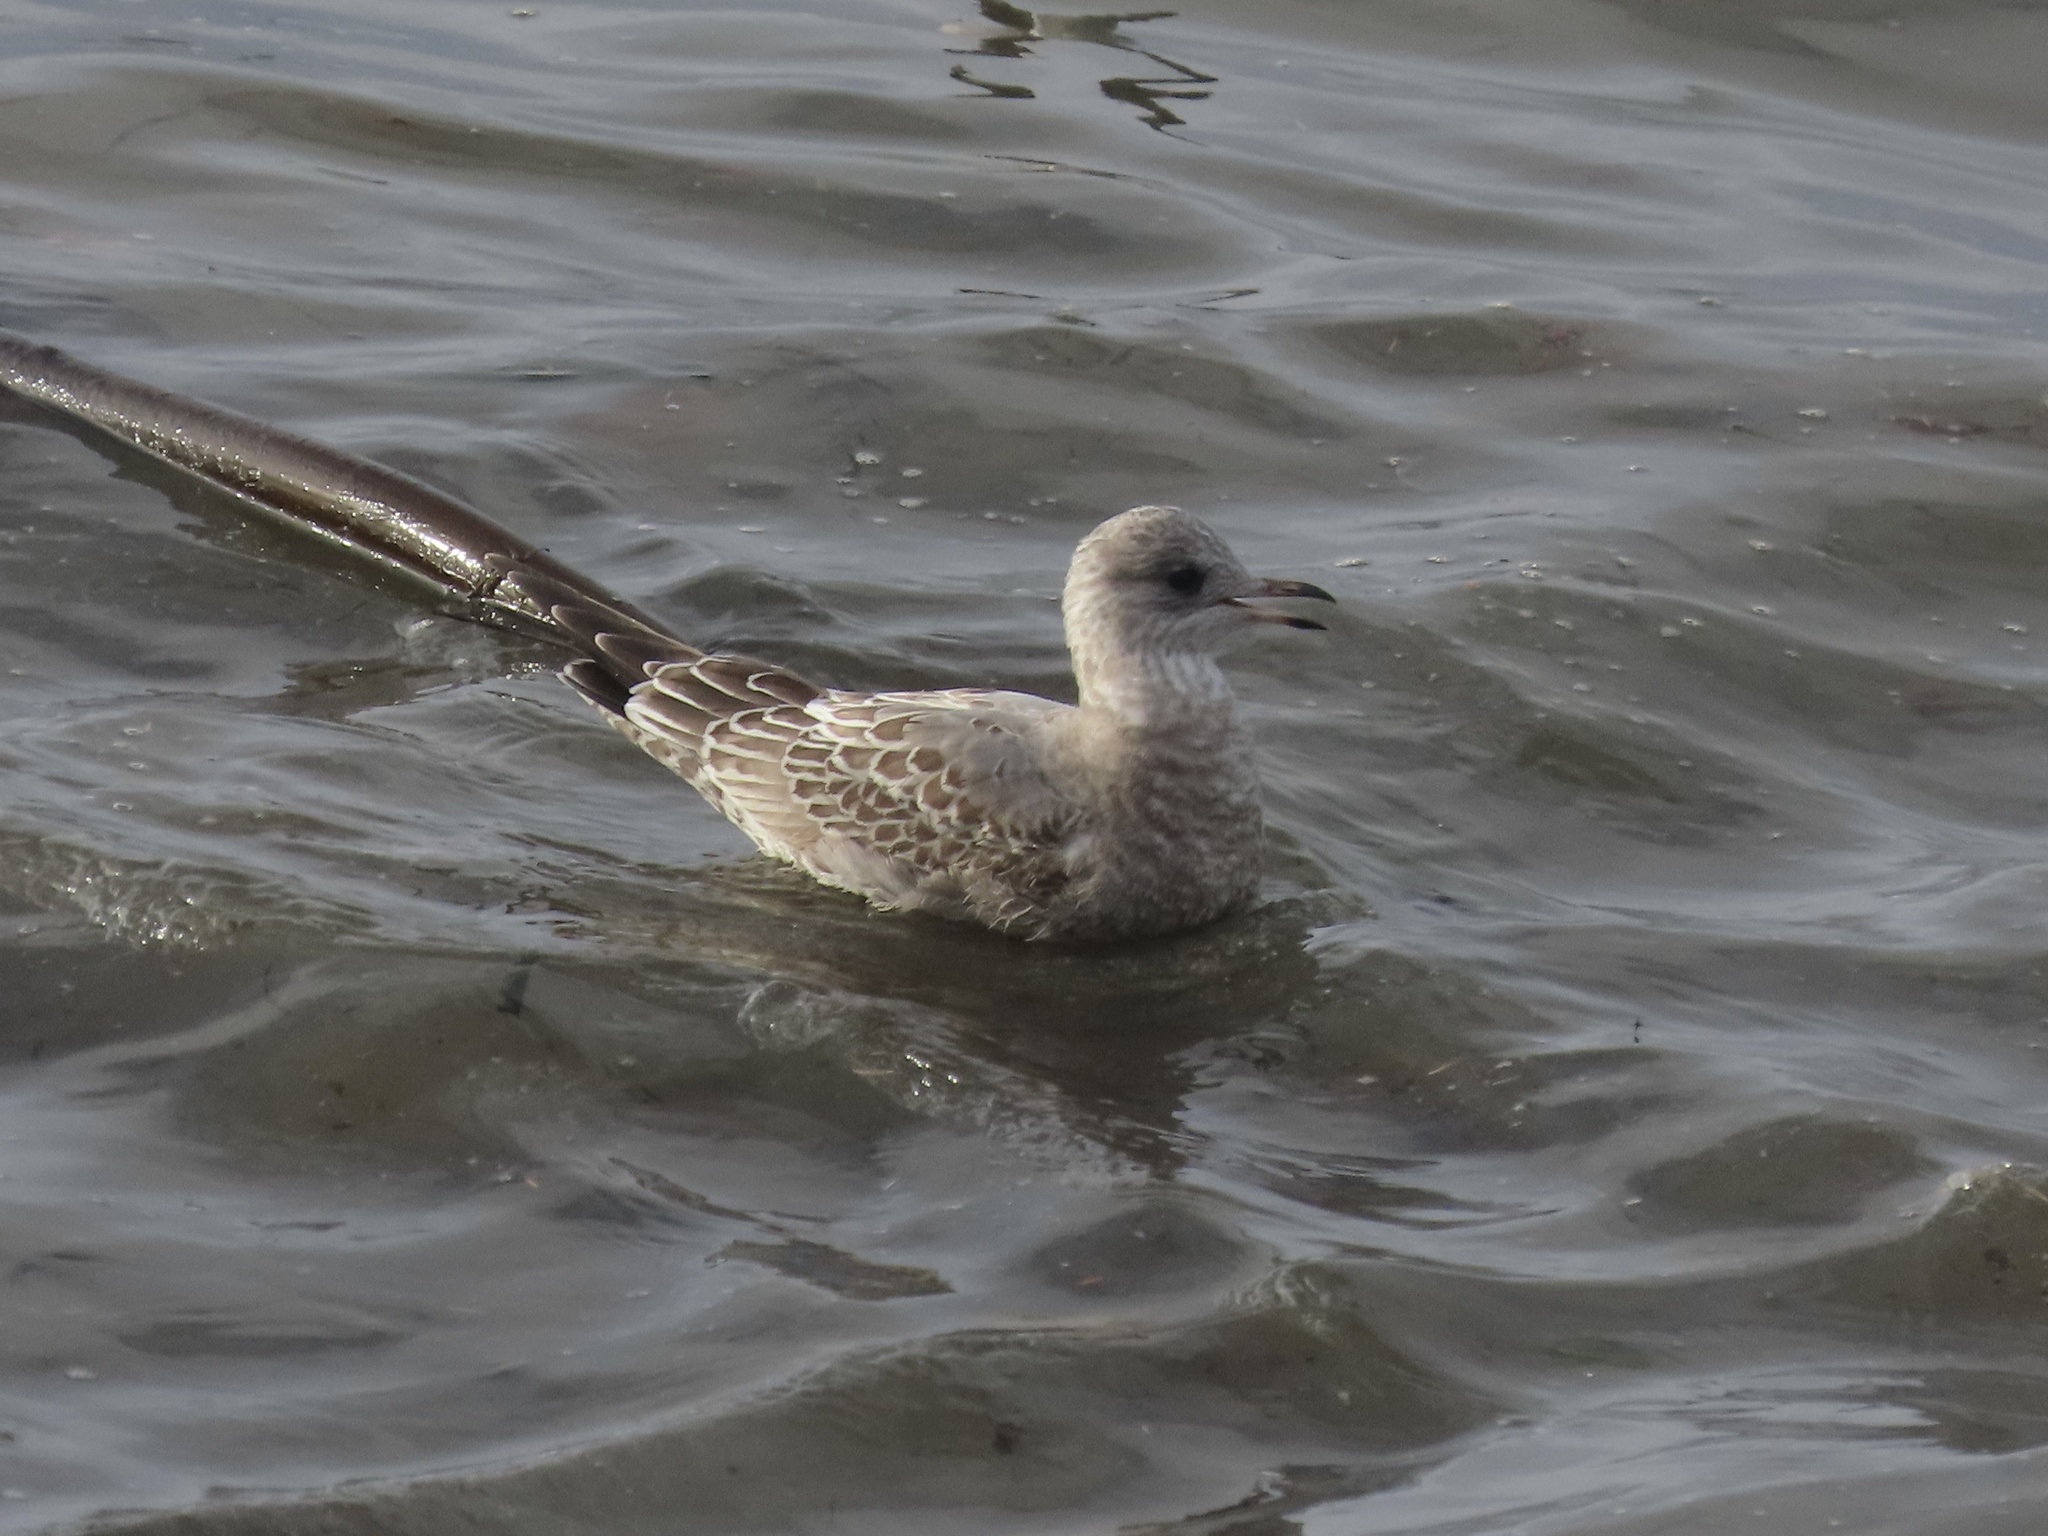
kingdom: Animalia
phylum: Chordata
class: Aves
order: Charadriiformes
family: Laridae
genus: Larus
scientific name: Larus brachyrhynchus
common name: Short-billed gull
